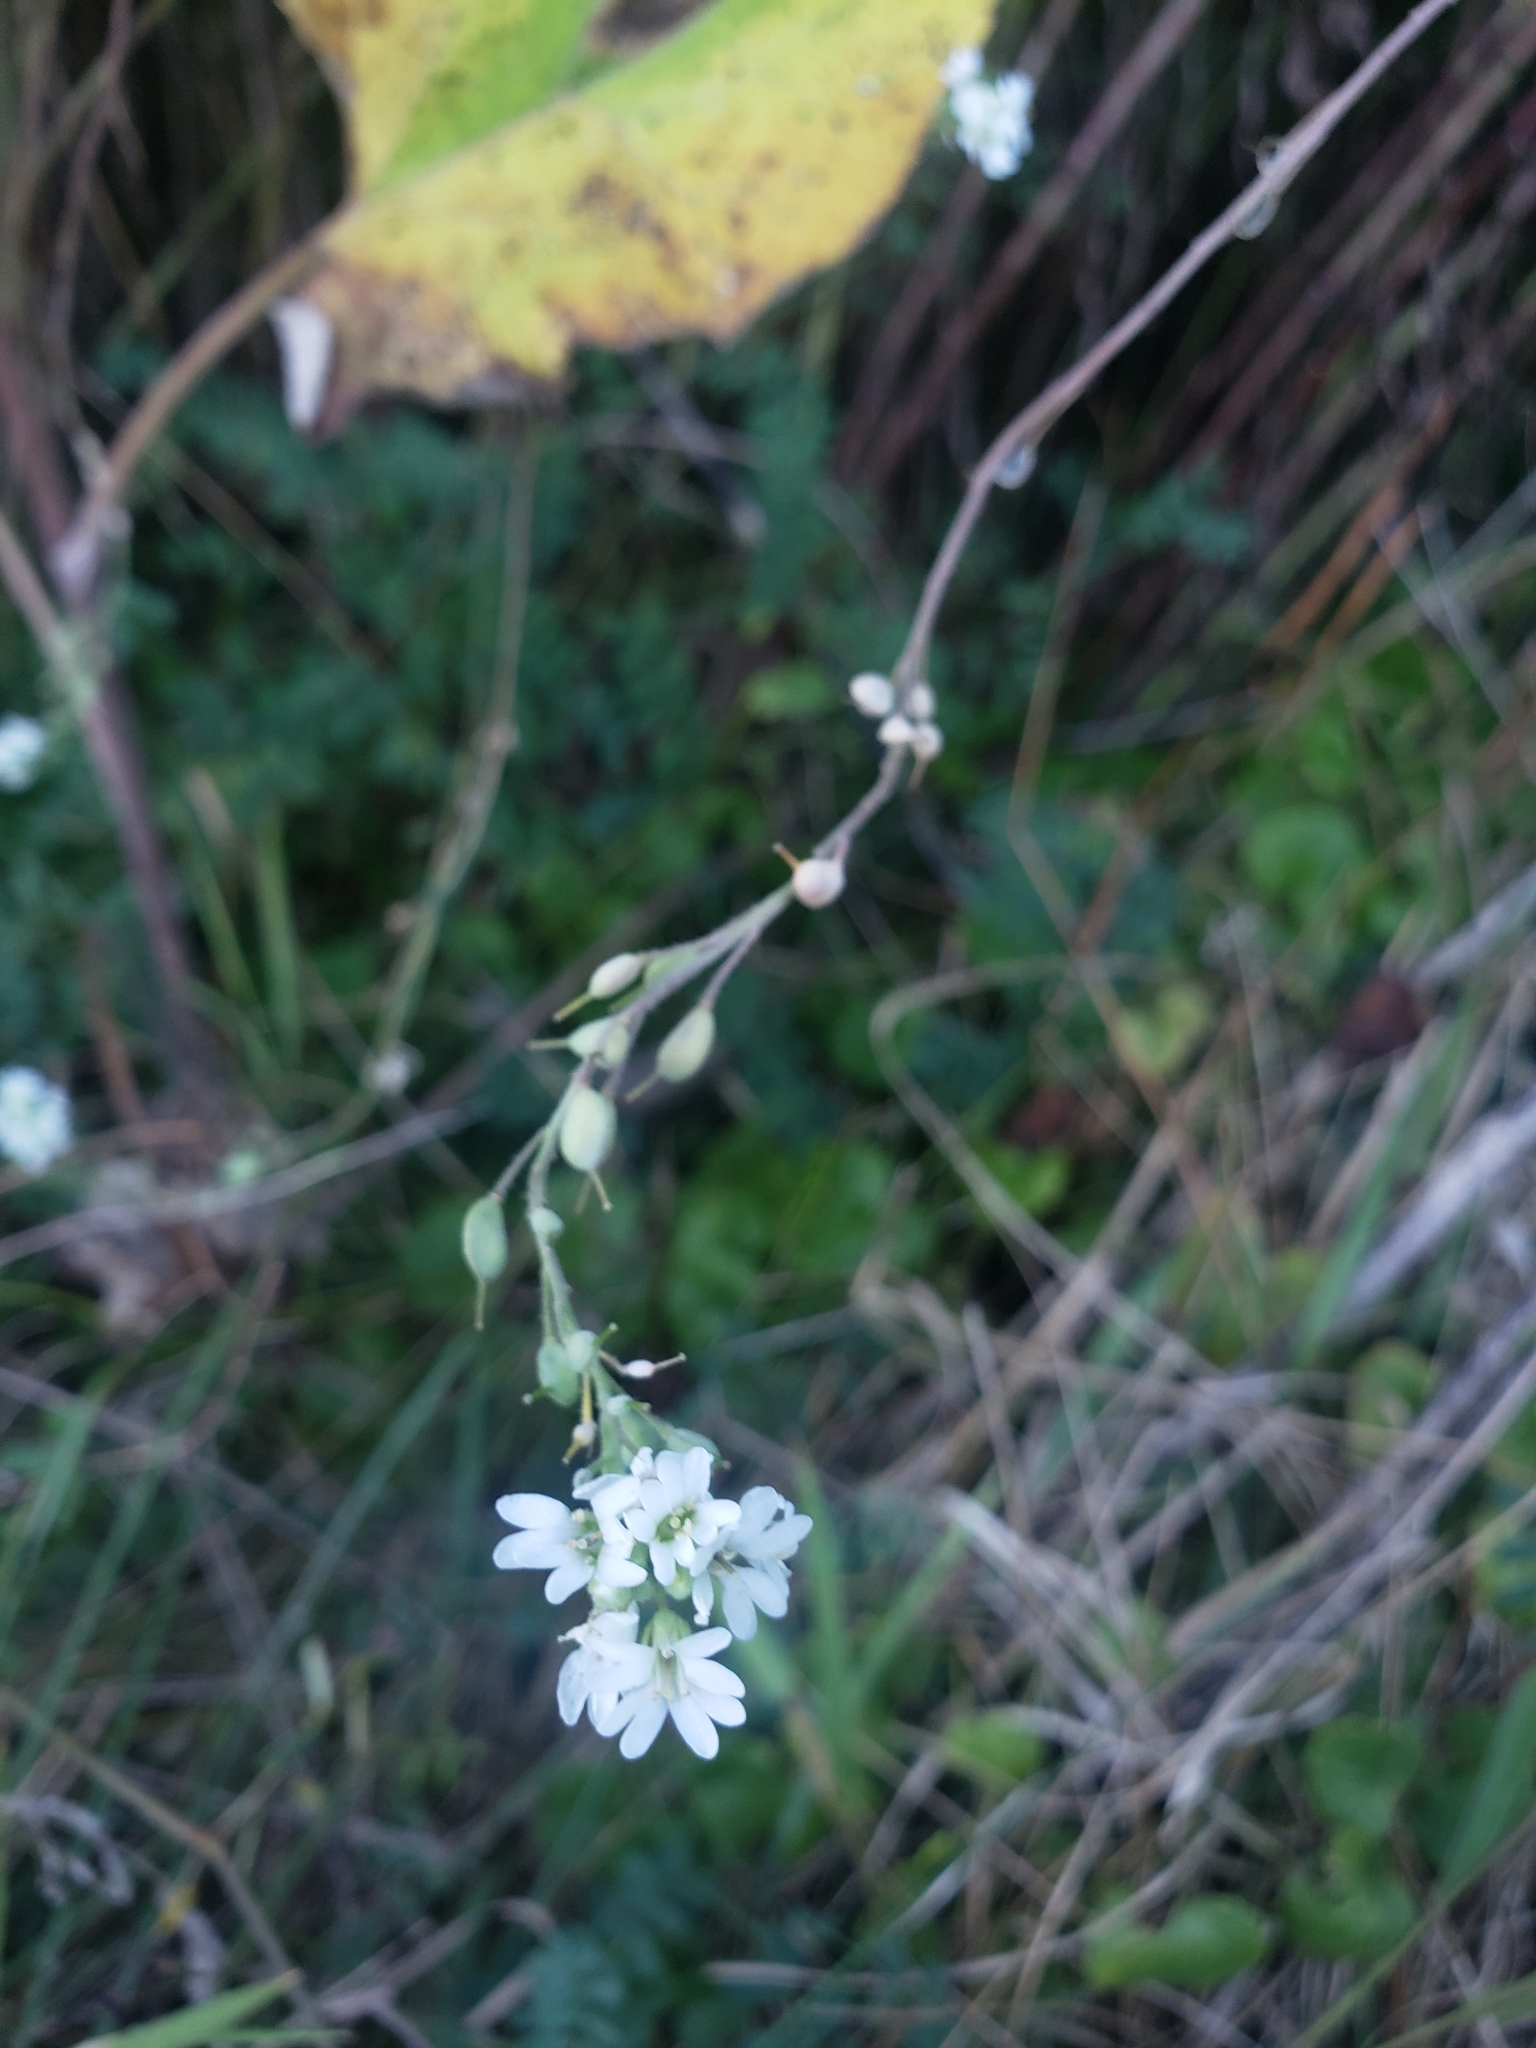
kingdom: Plantae
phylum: Tracheophyta
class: Magnoliopsida
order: Brassicales
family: Brassicaceae
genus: Berteroa
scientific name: Berteroa incana
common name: Hoary alison
